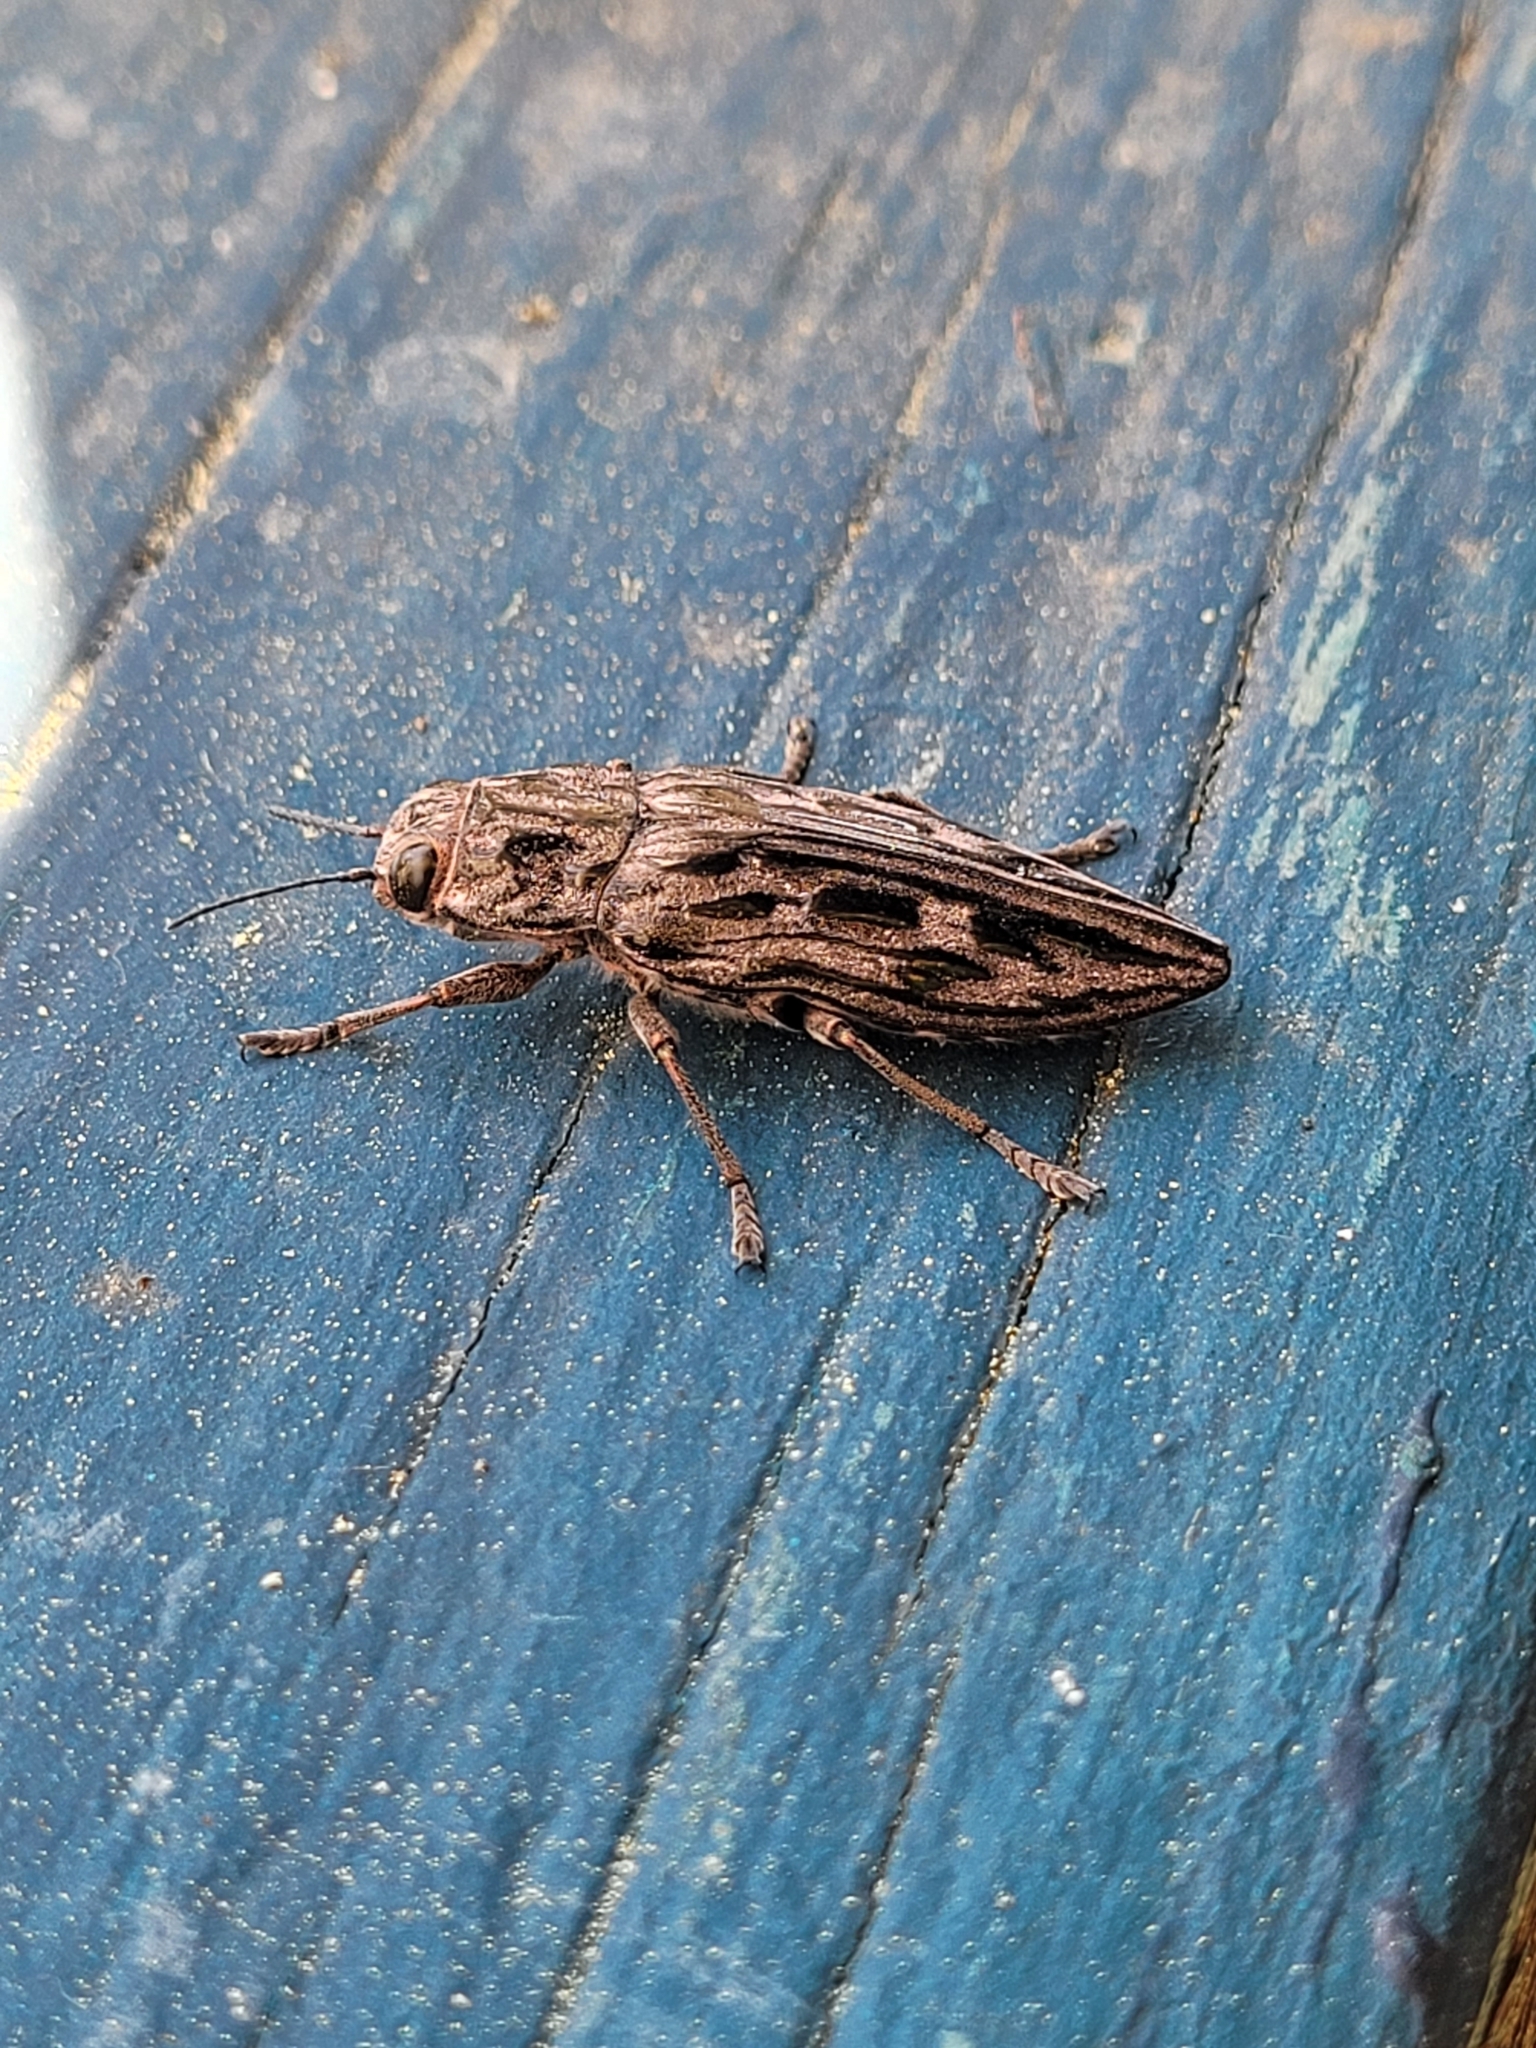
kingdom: Animalia
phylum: Arthropoda
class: Insecta
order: Coleoptera
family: Buprestidae
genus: Chalcophora
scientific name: Chalcophora angulicollis
